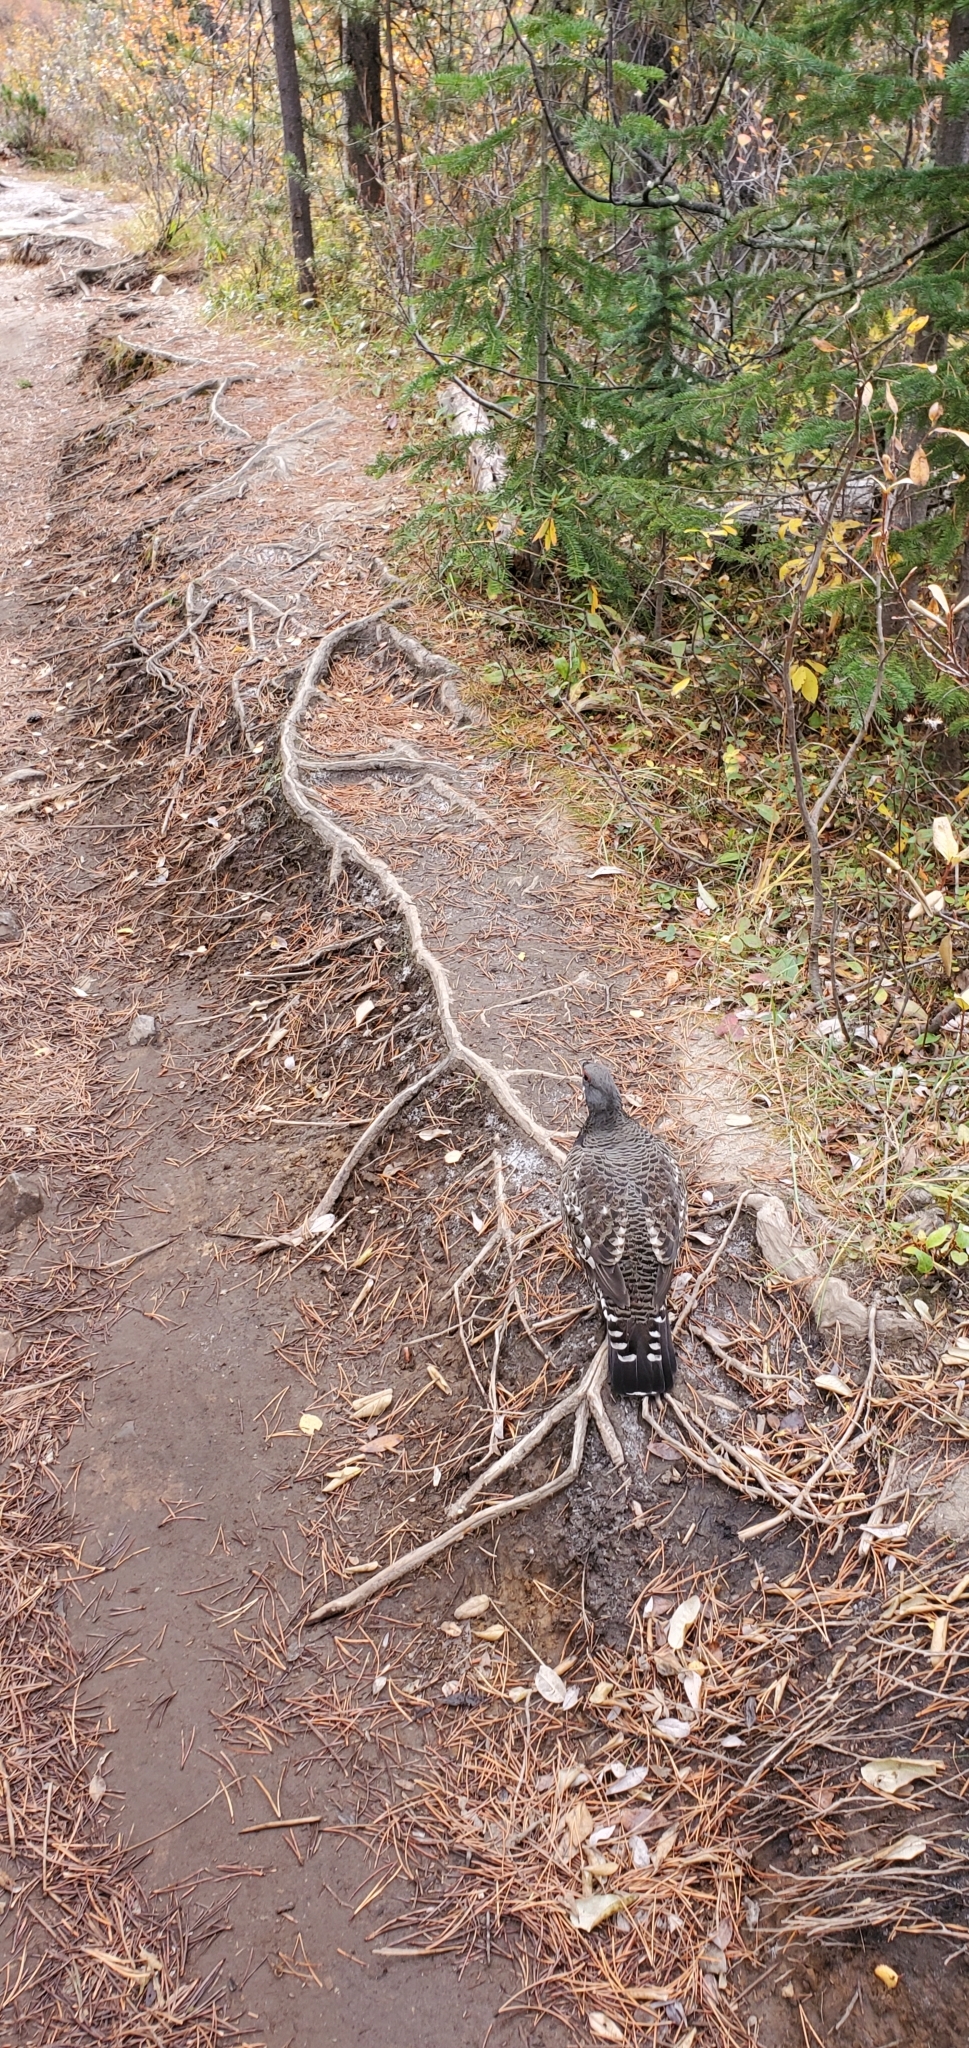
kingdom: Animalia
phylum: Chordata
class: Aves
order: Galliformes
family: Phasianidae
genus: Canachites
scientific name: Canachites canadensis
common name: Spruce grouse
